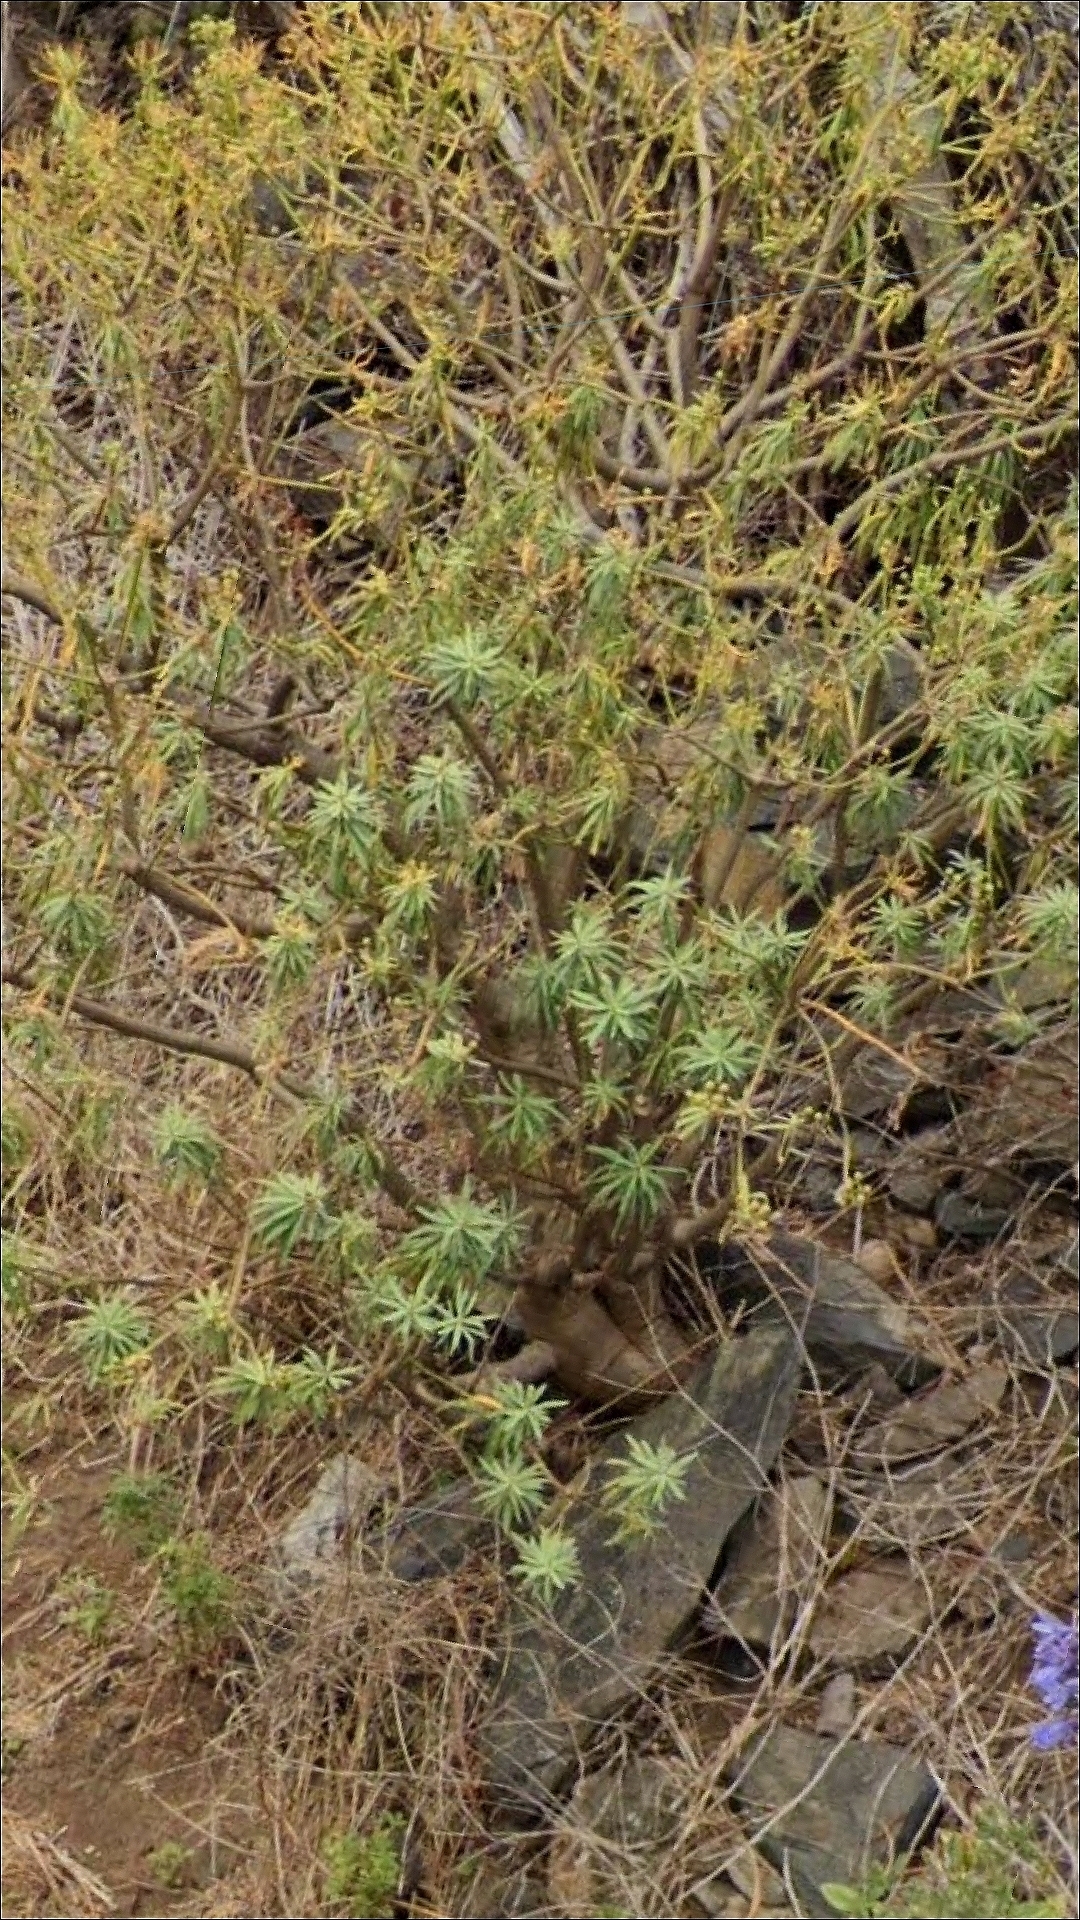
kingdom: Plantae
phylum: Tracheophyta
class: Magnoliopsida
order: Malpighiales
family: Euphorbiaceae
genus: Euphorbia
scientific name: Euphorbia piscatoria
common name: Fish-stunning spurge
